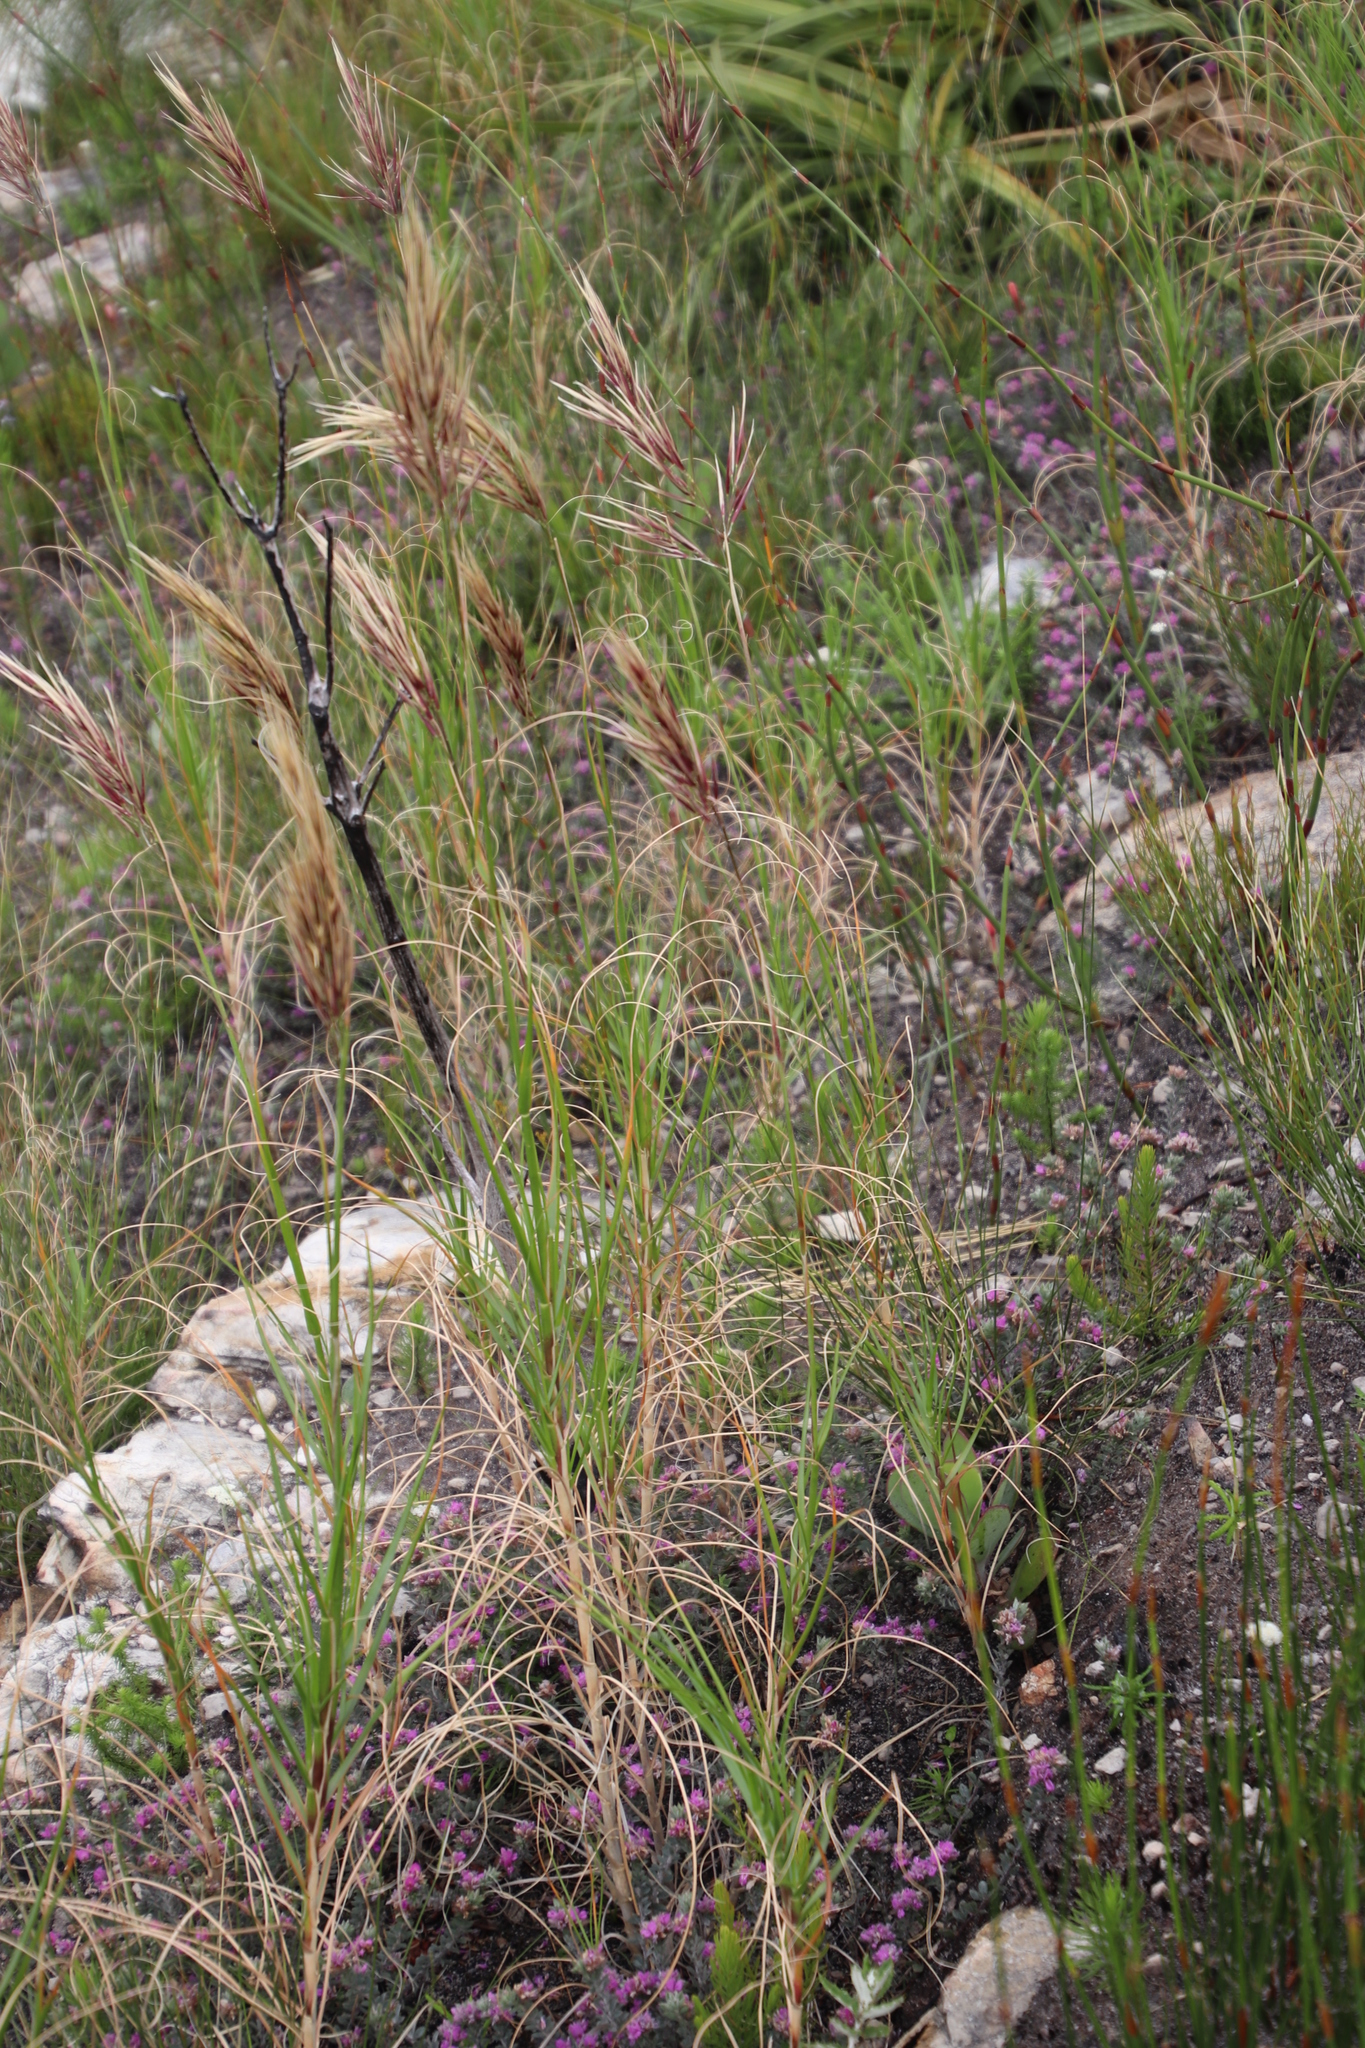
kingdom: Plantae
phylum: Tracheophyta
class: Liliopsida
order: Poales
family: Poaceae
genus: Pseudopentameris
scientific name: Pseudopentameris macrantha
